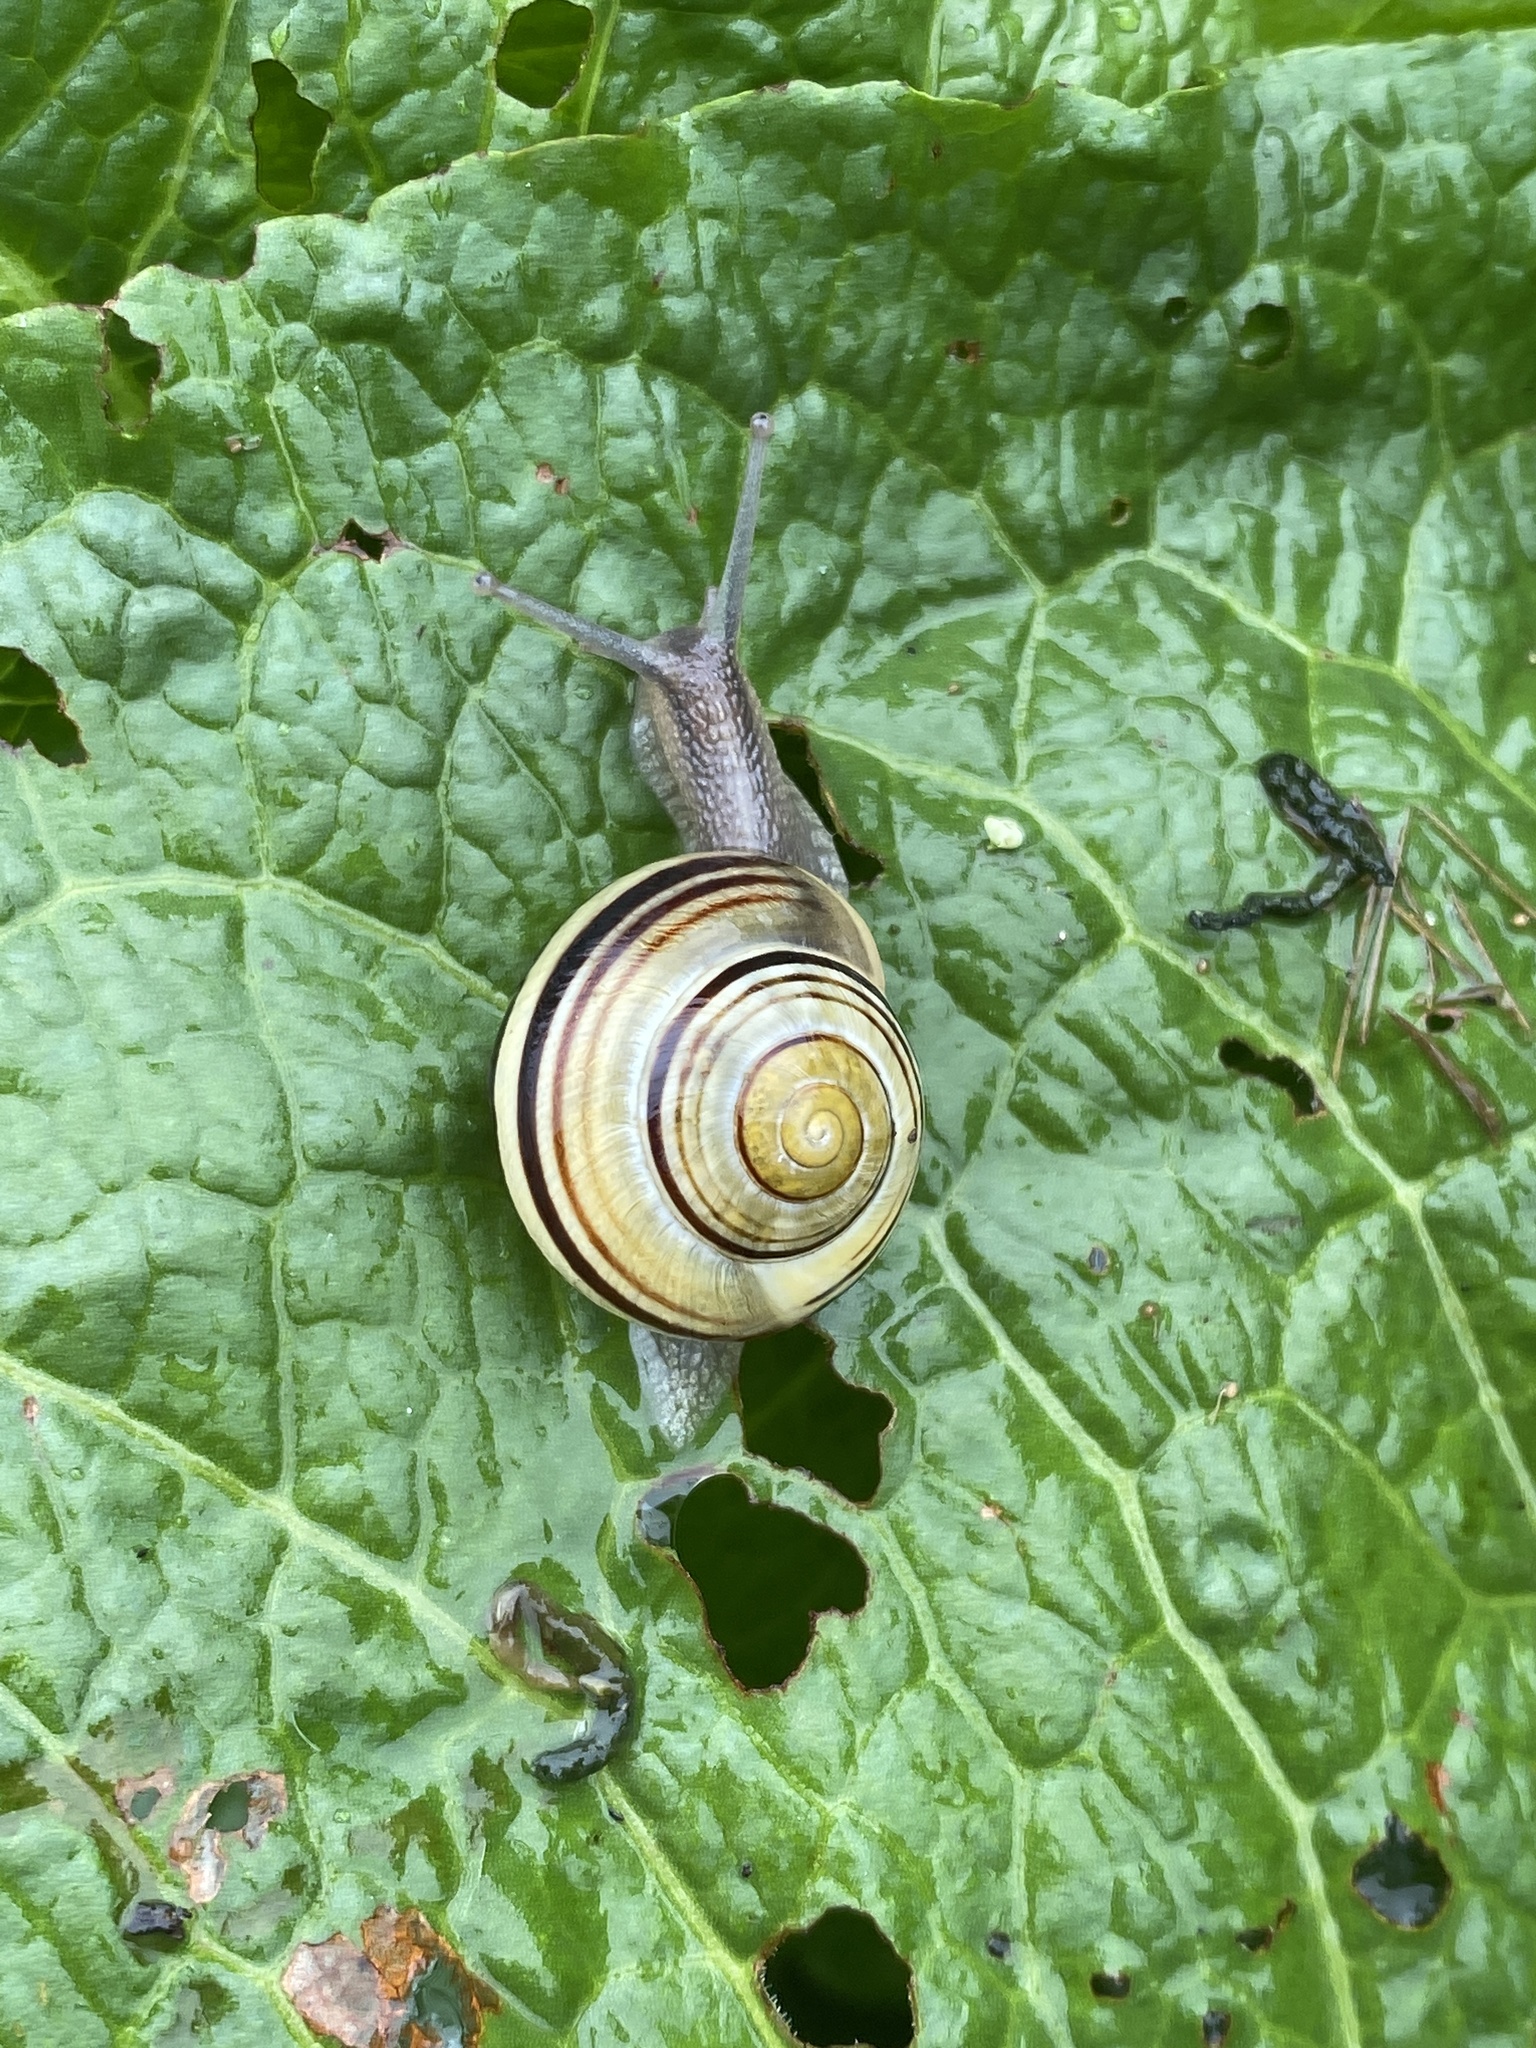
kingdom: Animalia
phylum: Mollusca
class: Gastropoda
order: Stylommatophora
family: Helicidae
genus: Cepaea
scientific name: Cepaea nemoralis
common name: Grovesnail
